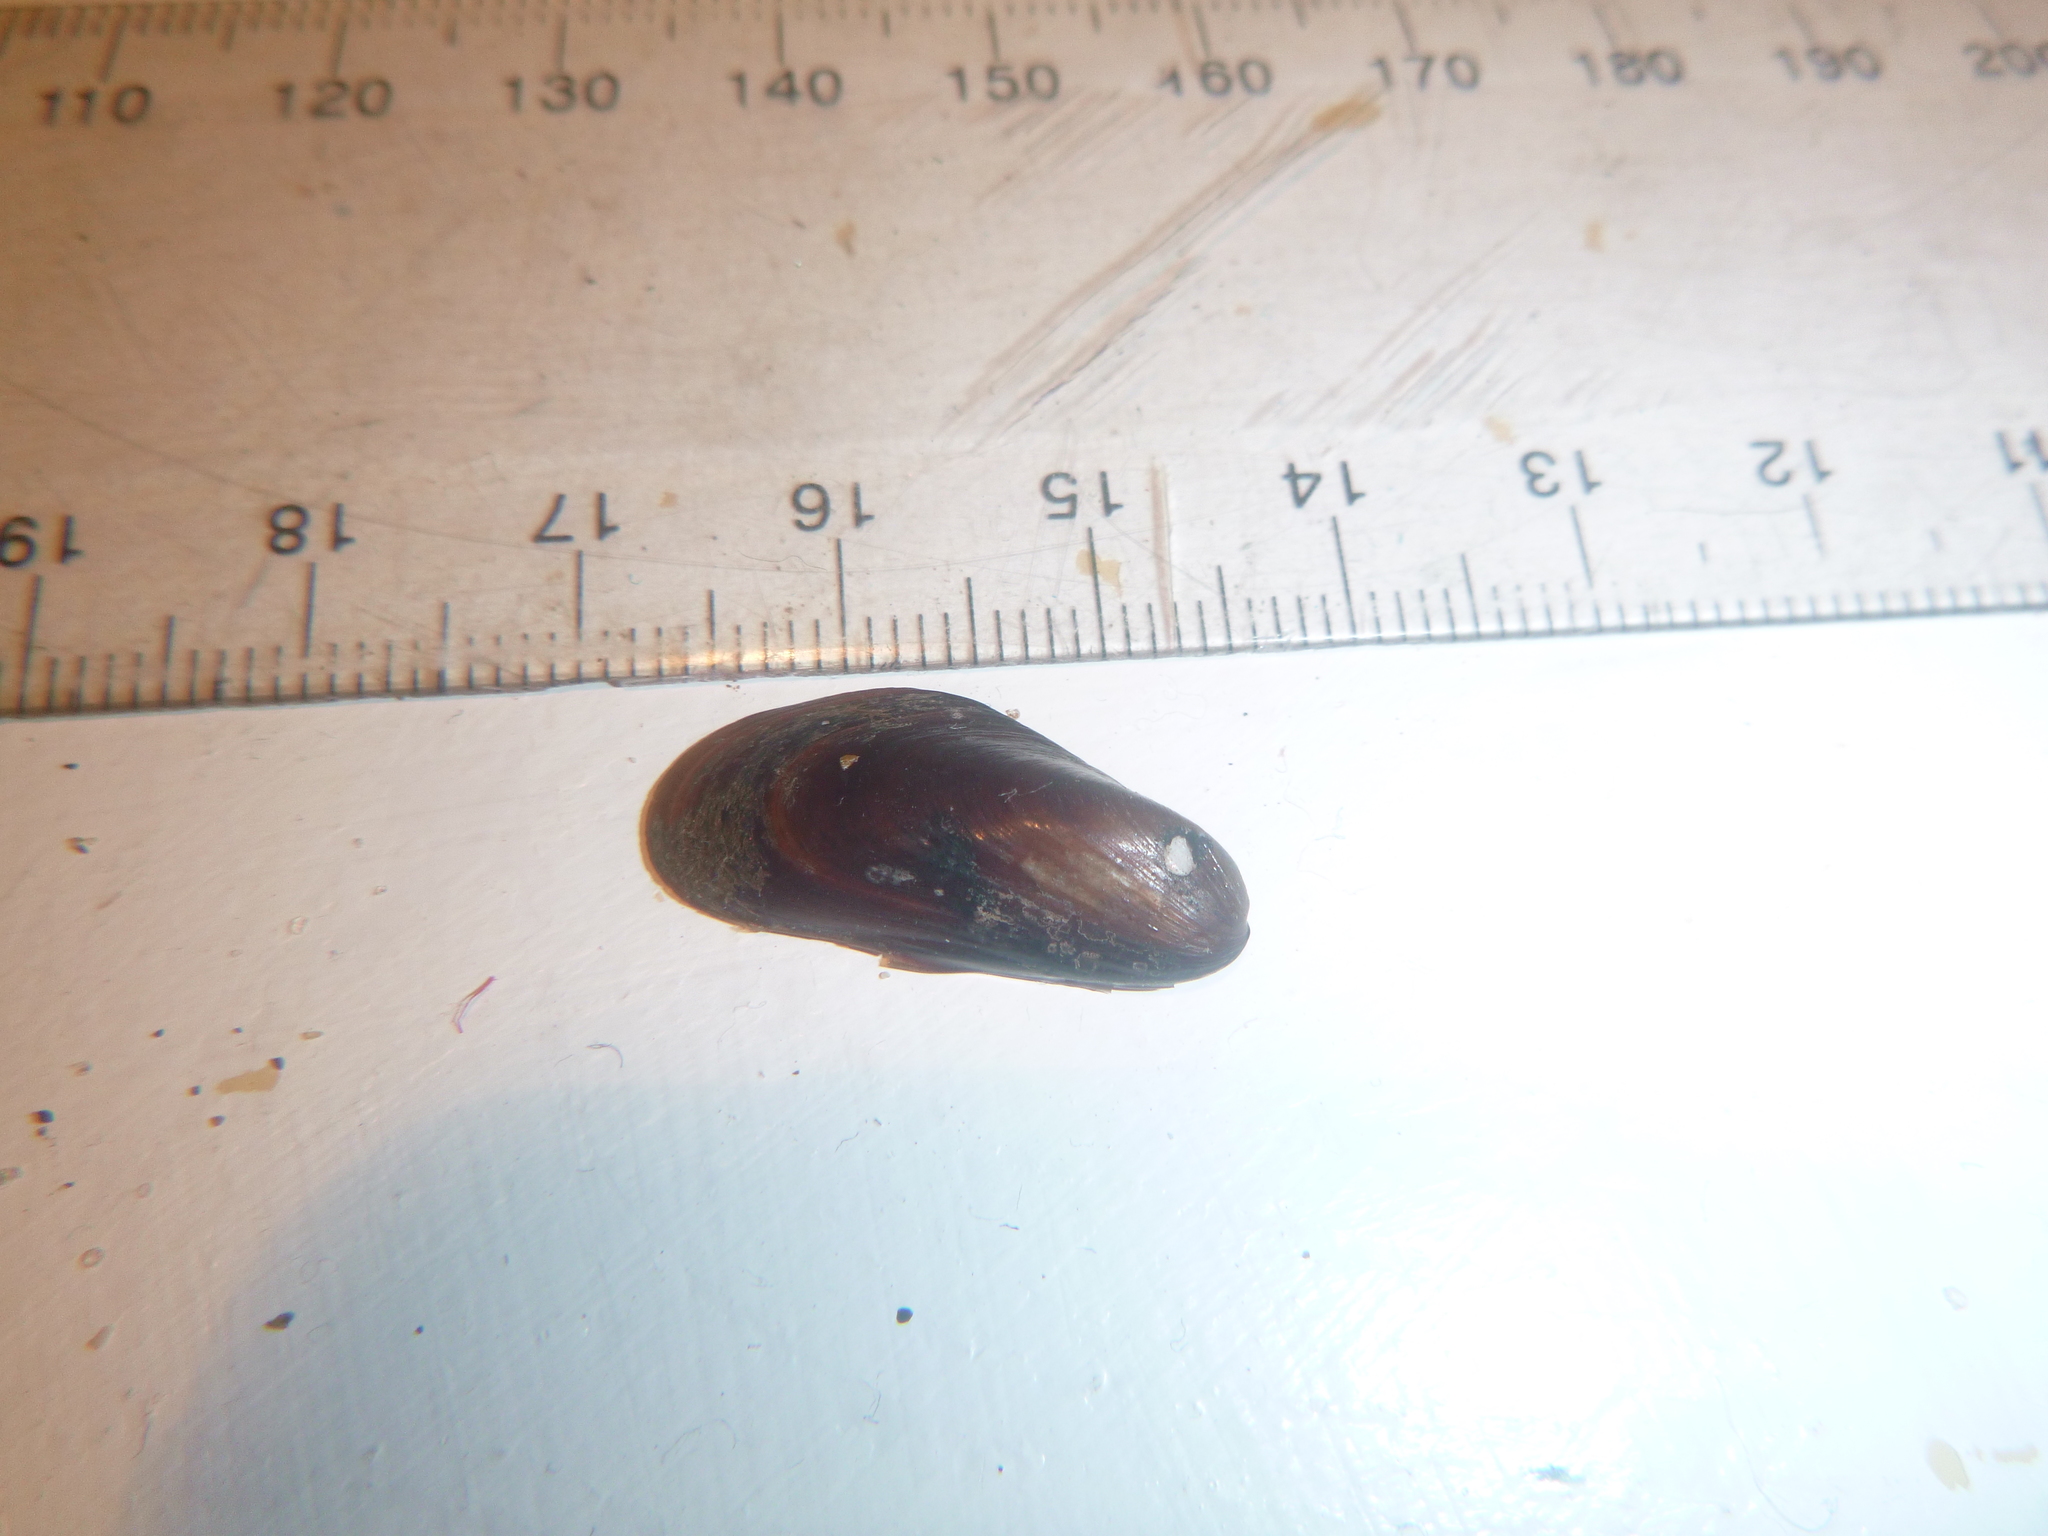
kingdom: Animalia
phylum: Mollusca
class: Bivalvia
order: Mytilida
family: Mytilidae
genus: Xenostrobus
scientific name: Xenostrobus securis
